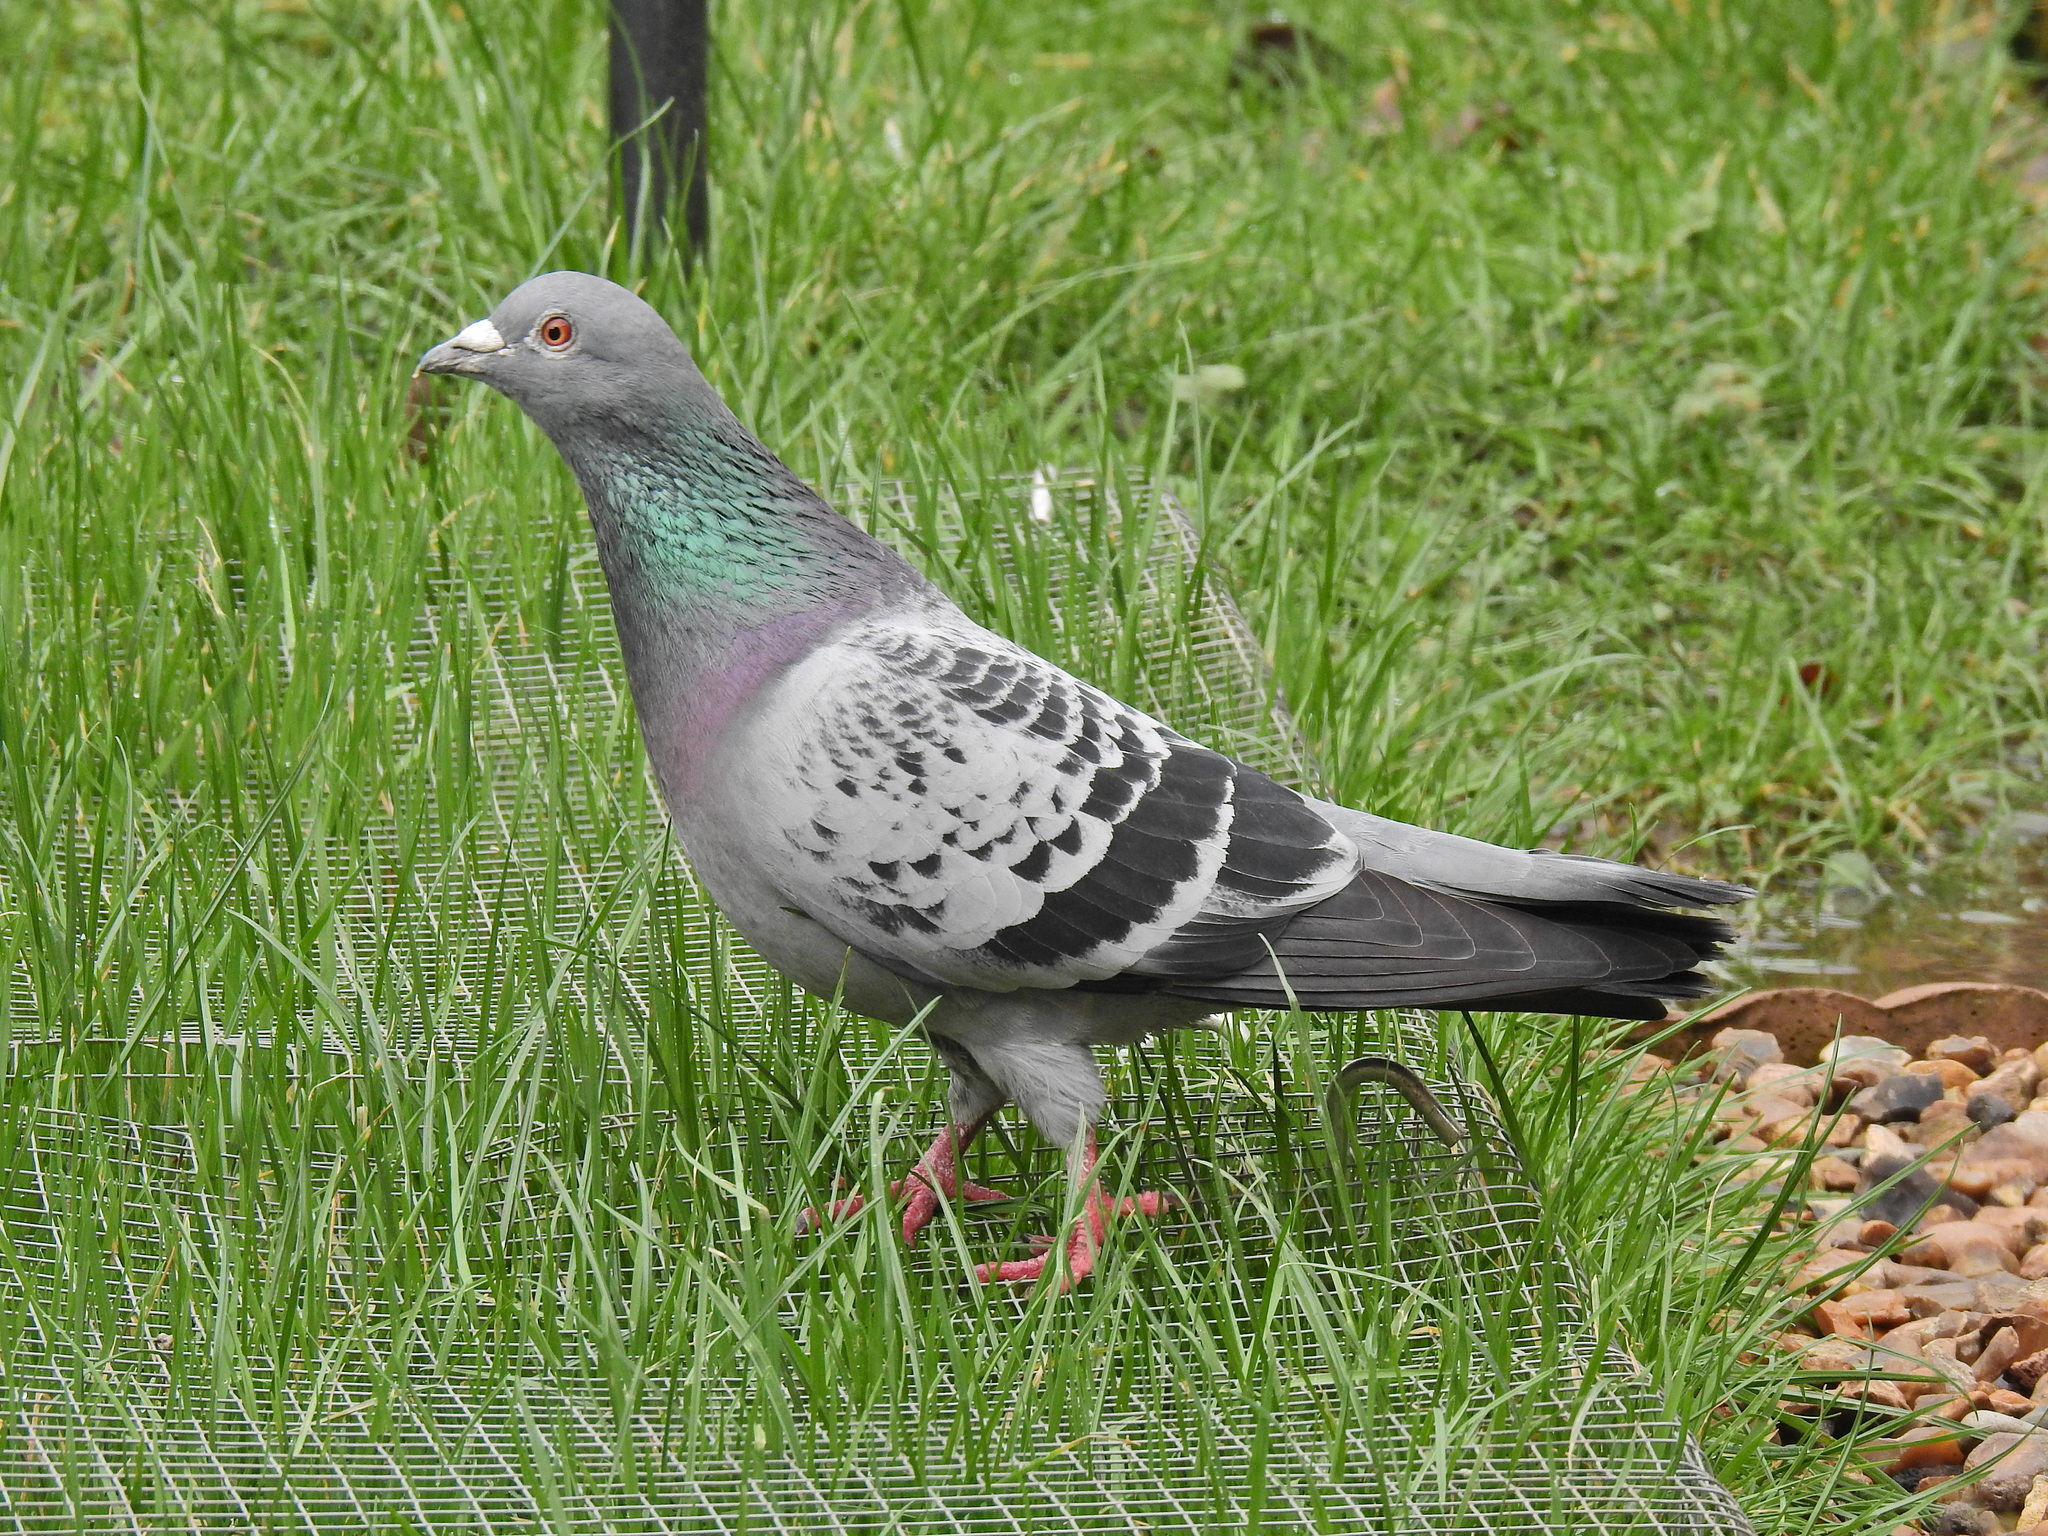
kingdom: Animalia
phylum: Chordata
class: Aves
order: Columbiformes
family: Columbidae
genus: Columba
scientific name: Columba livia
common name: Rock pigeon
